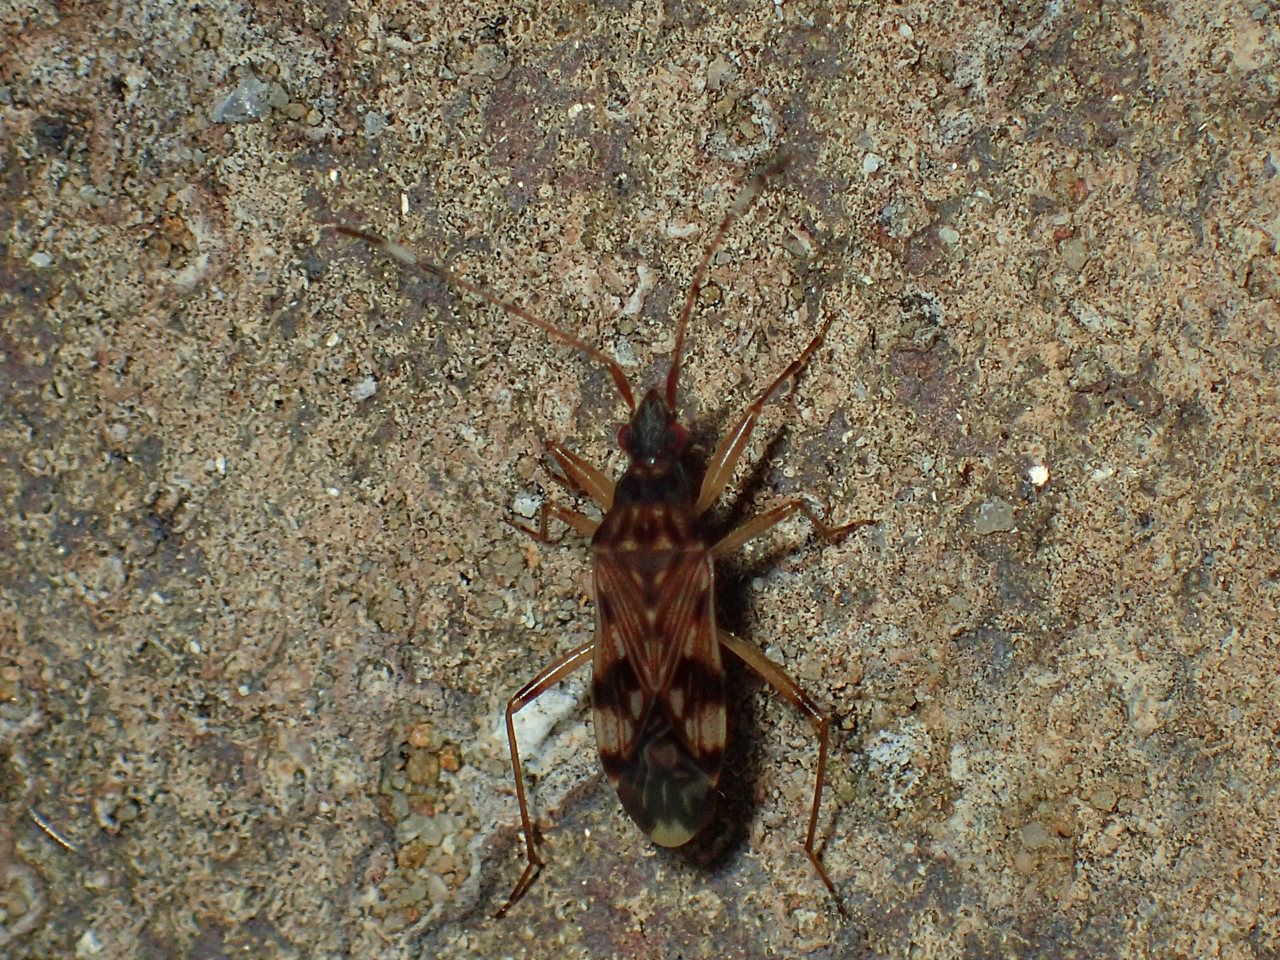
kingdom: Animalia
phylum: Arthropoda
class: Insecta
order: Hemiptera
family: Rhyparochromidae
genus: Ozophora
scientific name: Ozophora picturata
